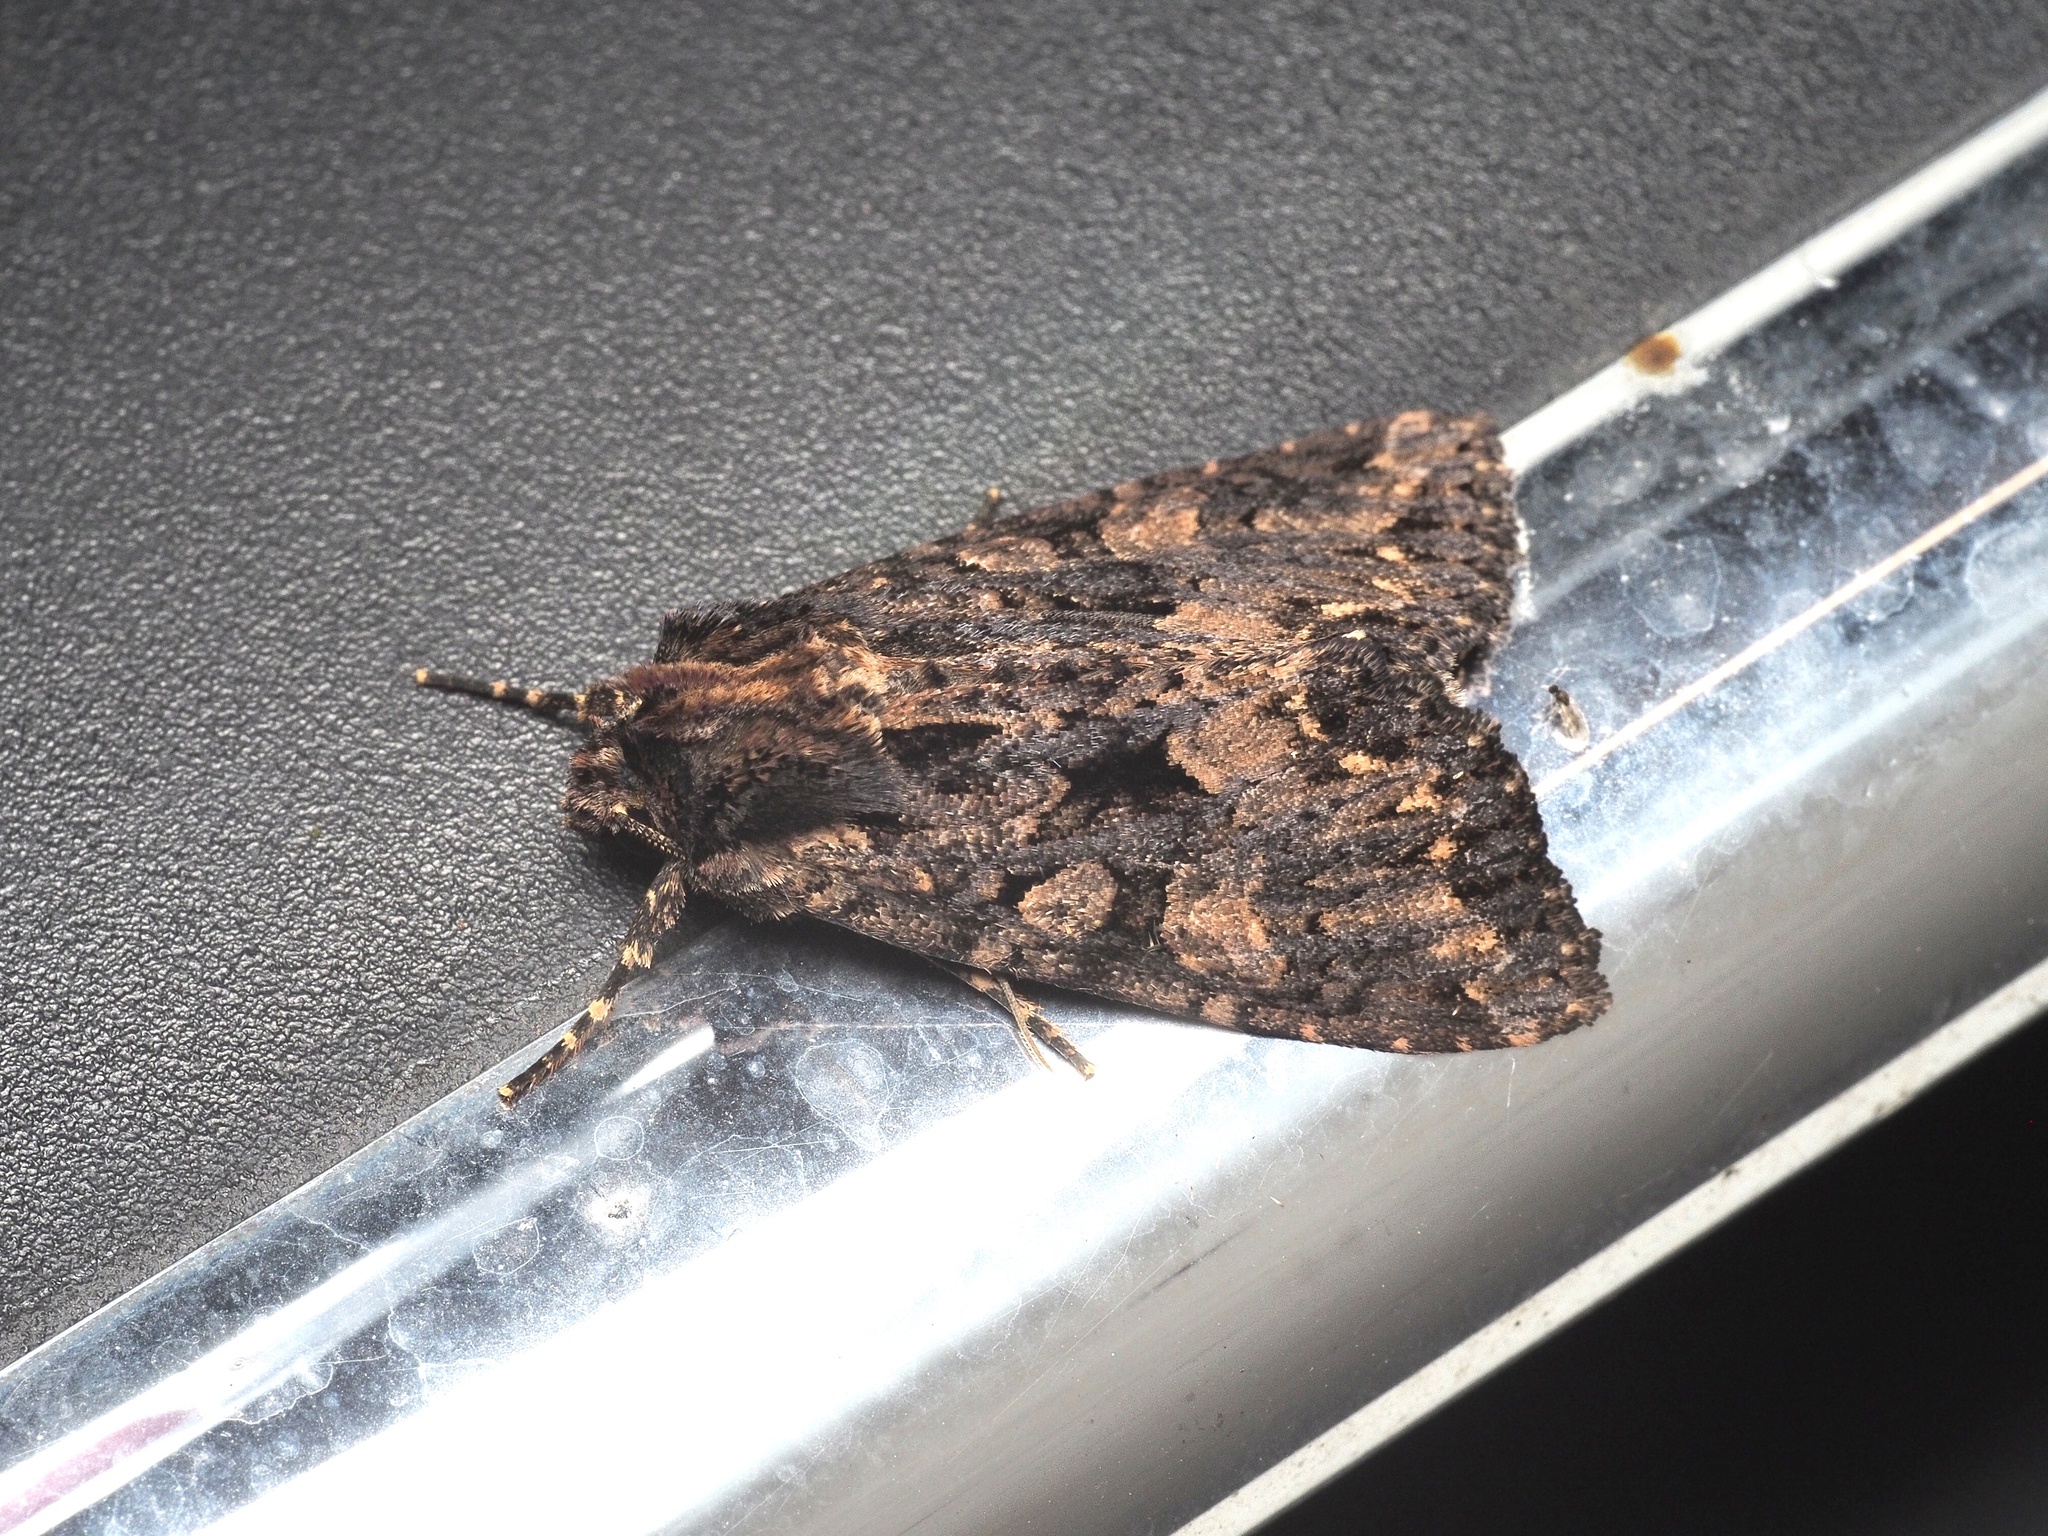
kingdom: Animalia
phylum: Arthropoda
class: Insecta
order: Lepidoptera
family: Noctuidae
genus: Mniotype
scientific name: Mniotype satura
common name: Beautiful arches
